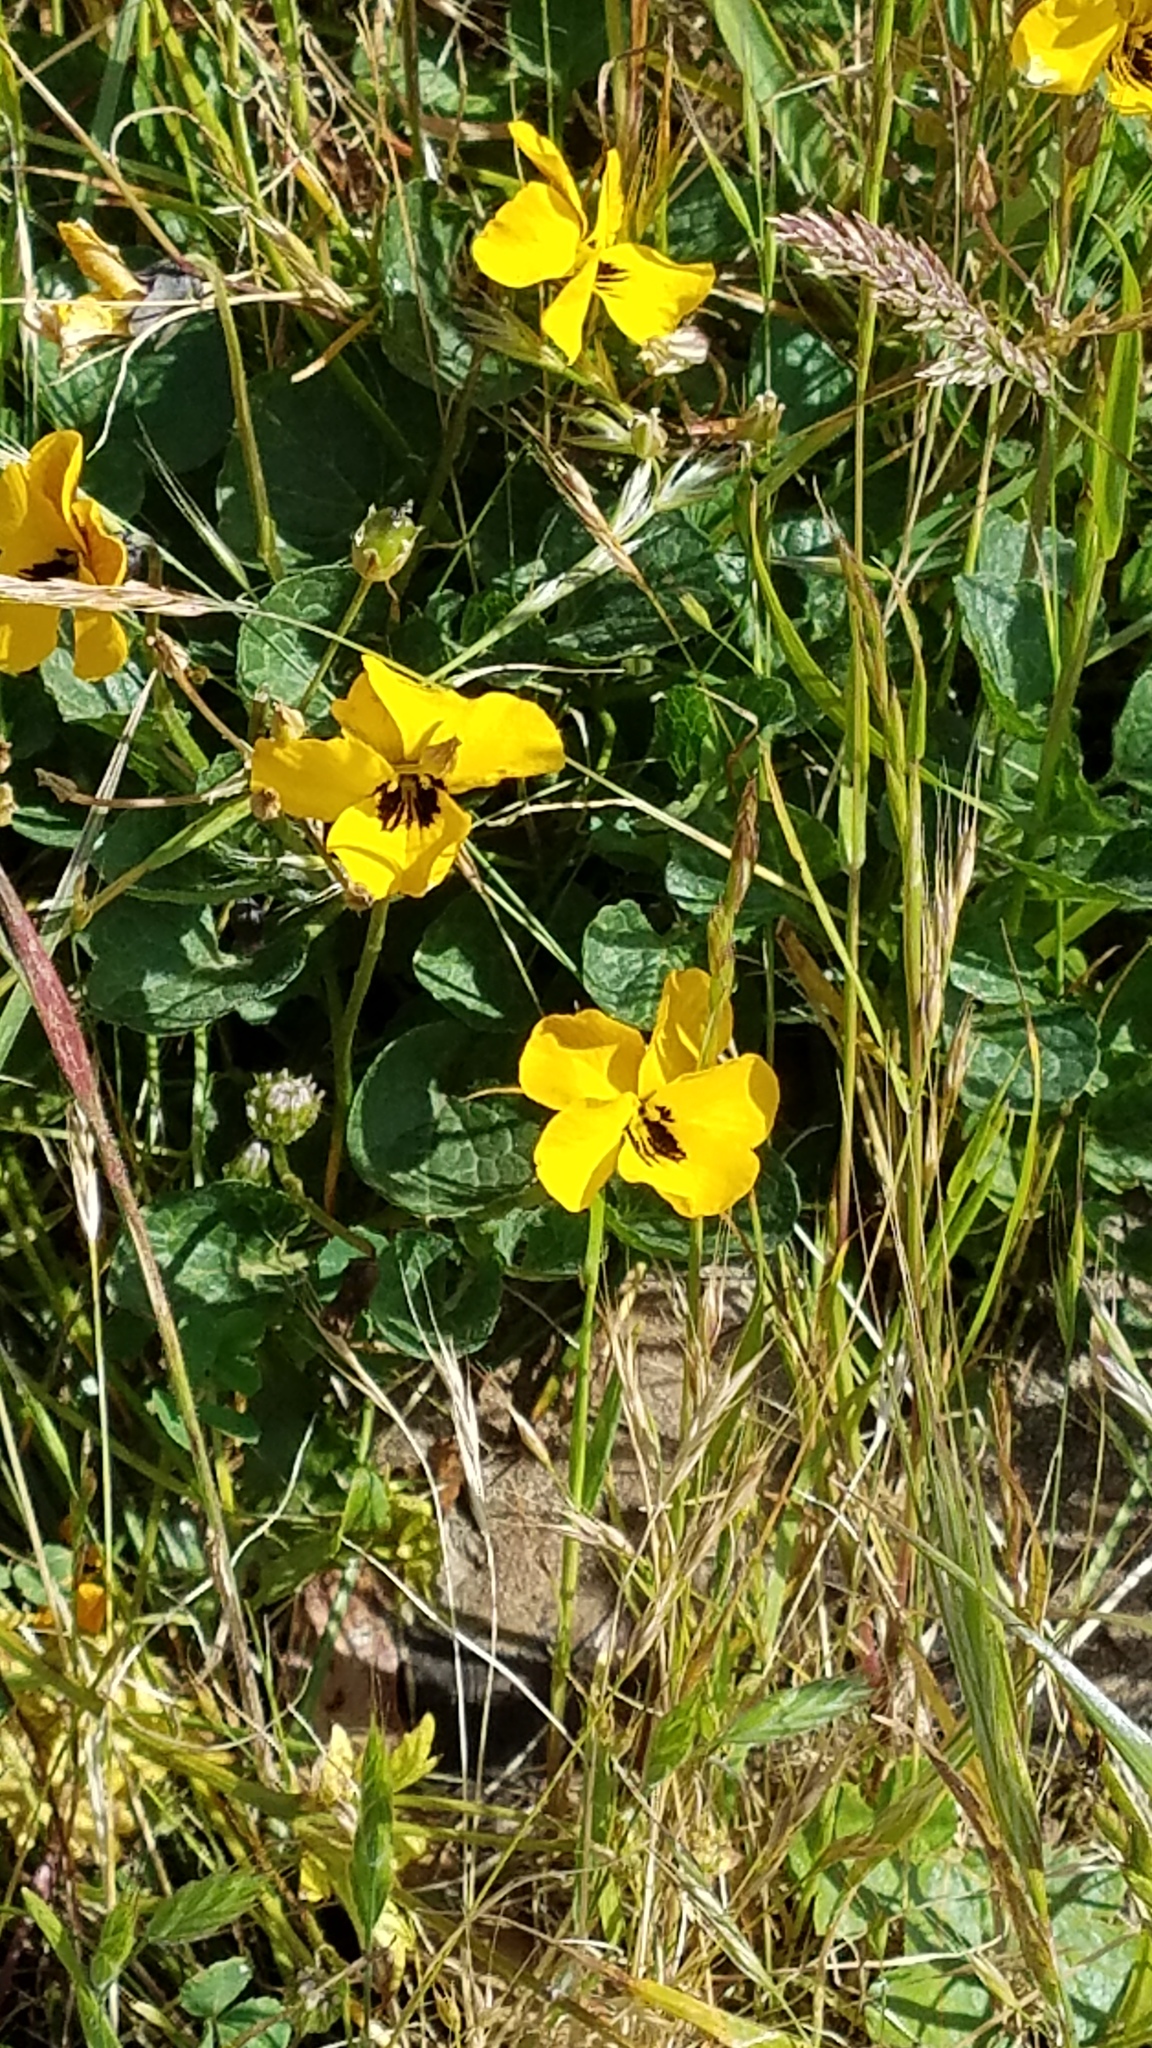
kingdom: Plantae
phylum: Tracheophyta
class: Magnoliopsida
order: Malpighiales
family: Violaceae
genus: Viola
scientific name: Viola pedunculata
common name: California golden violet
